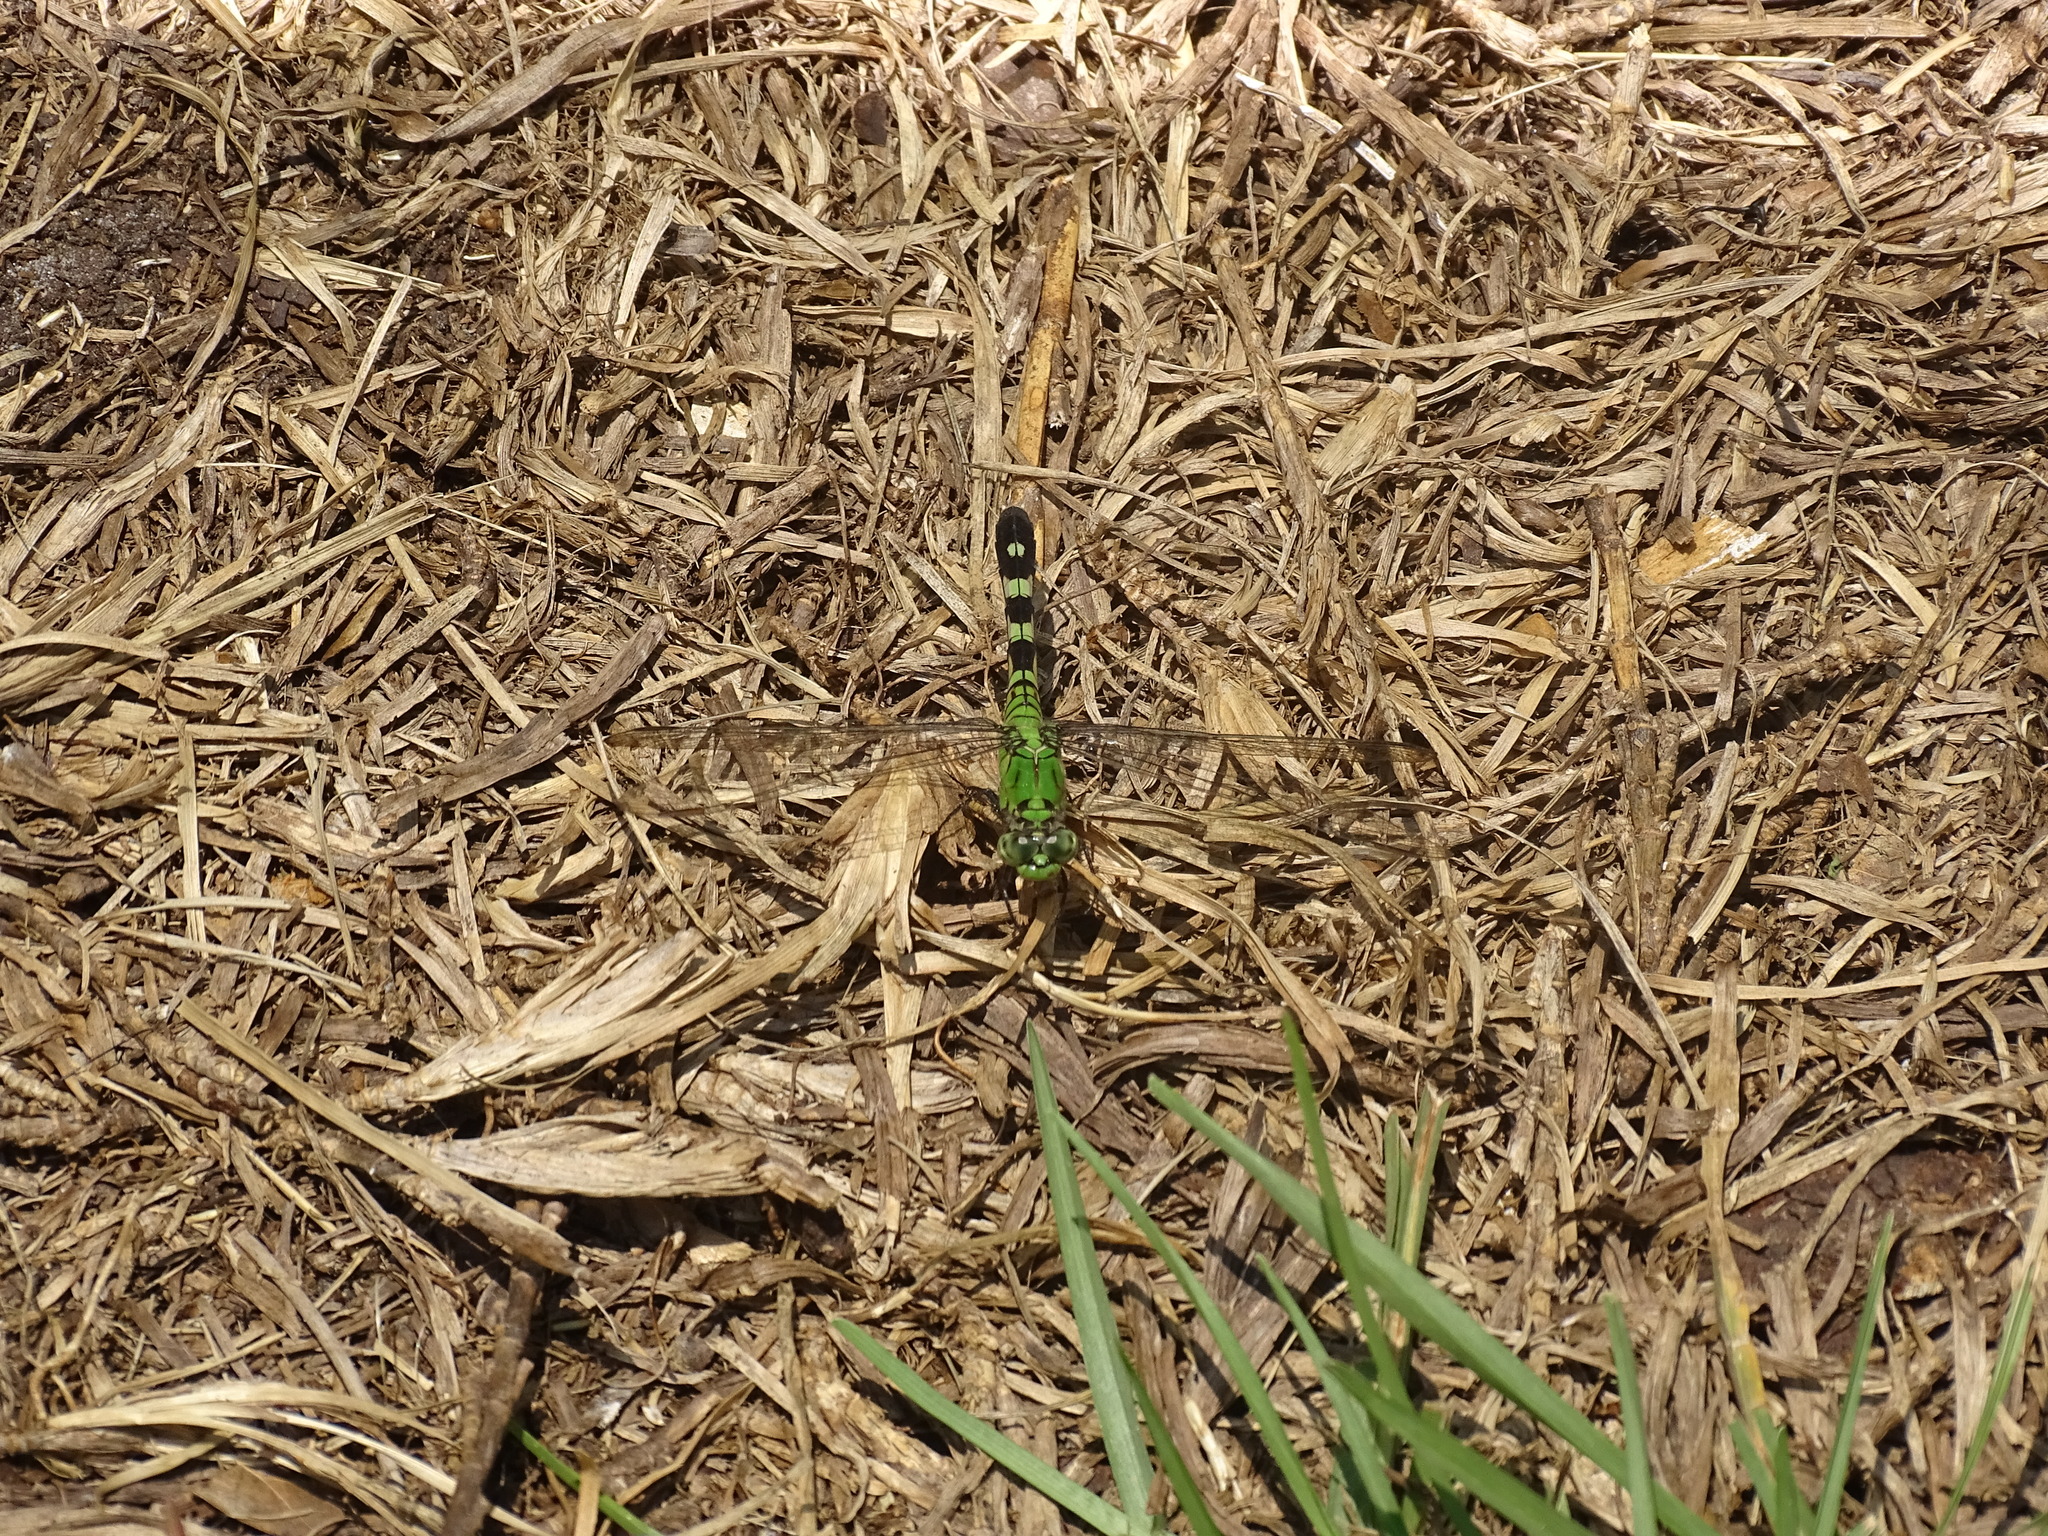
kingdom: Animalia
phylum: Arthropoda
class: Insecta
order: Odonata
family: Libellulidae
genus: Erythemis
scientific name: Erythemis simplicicollis
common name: Eastern pondhawk
